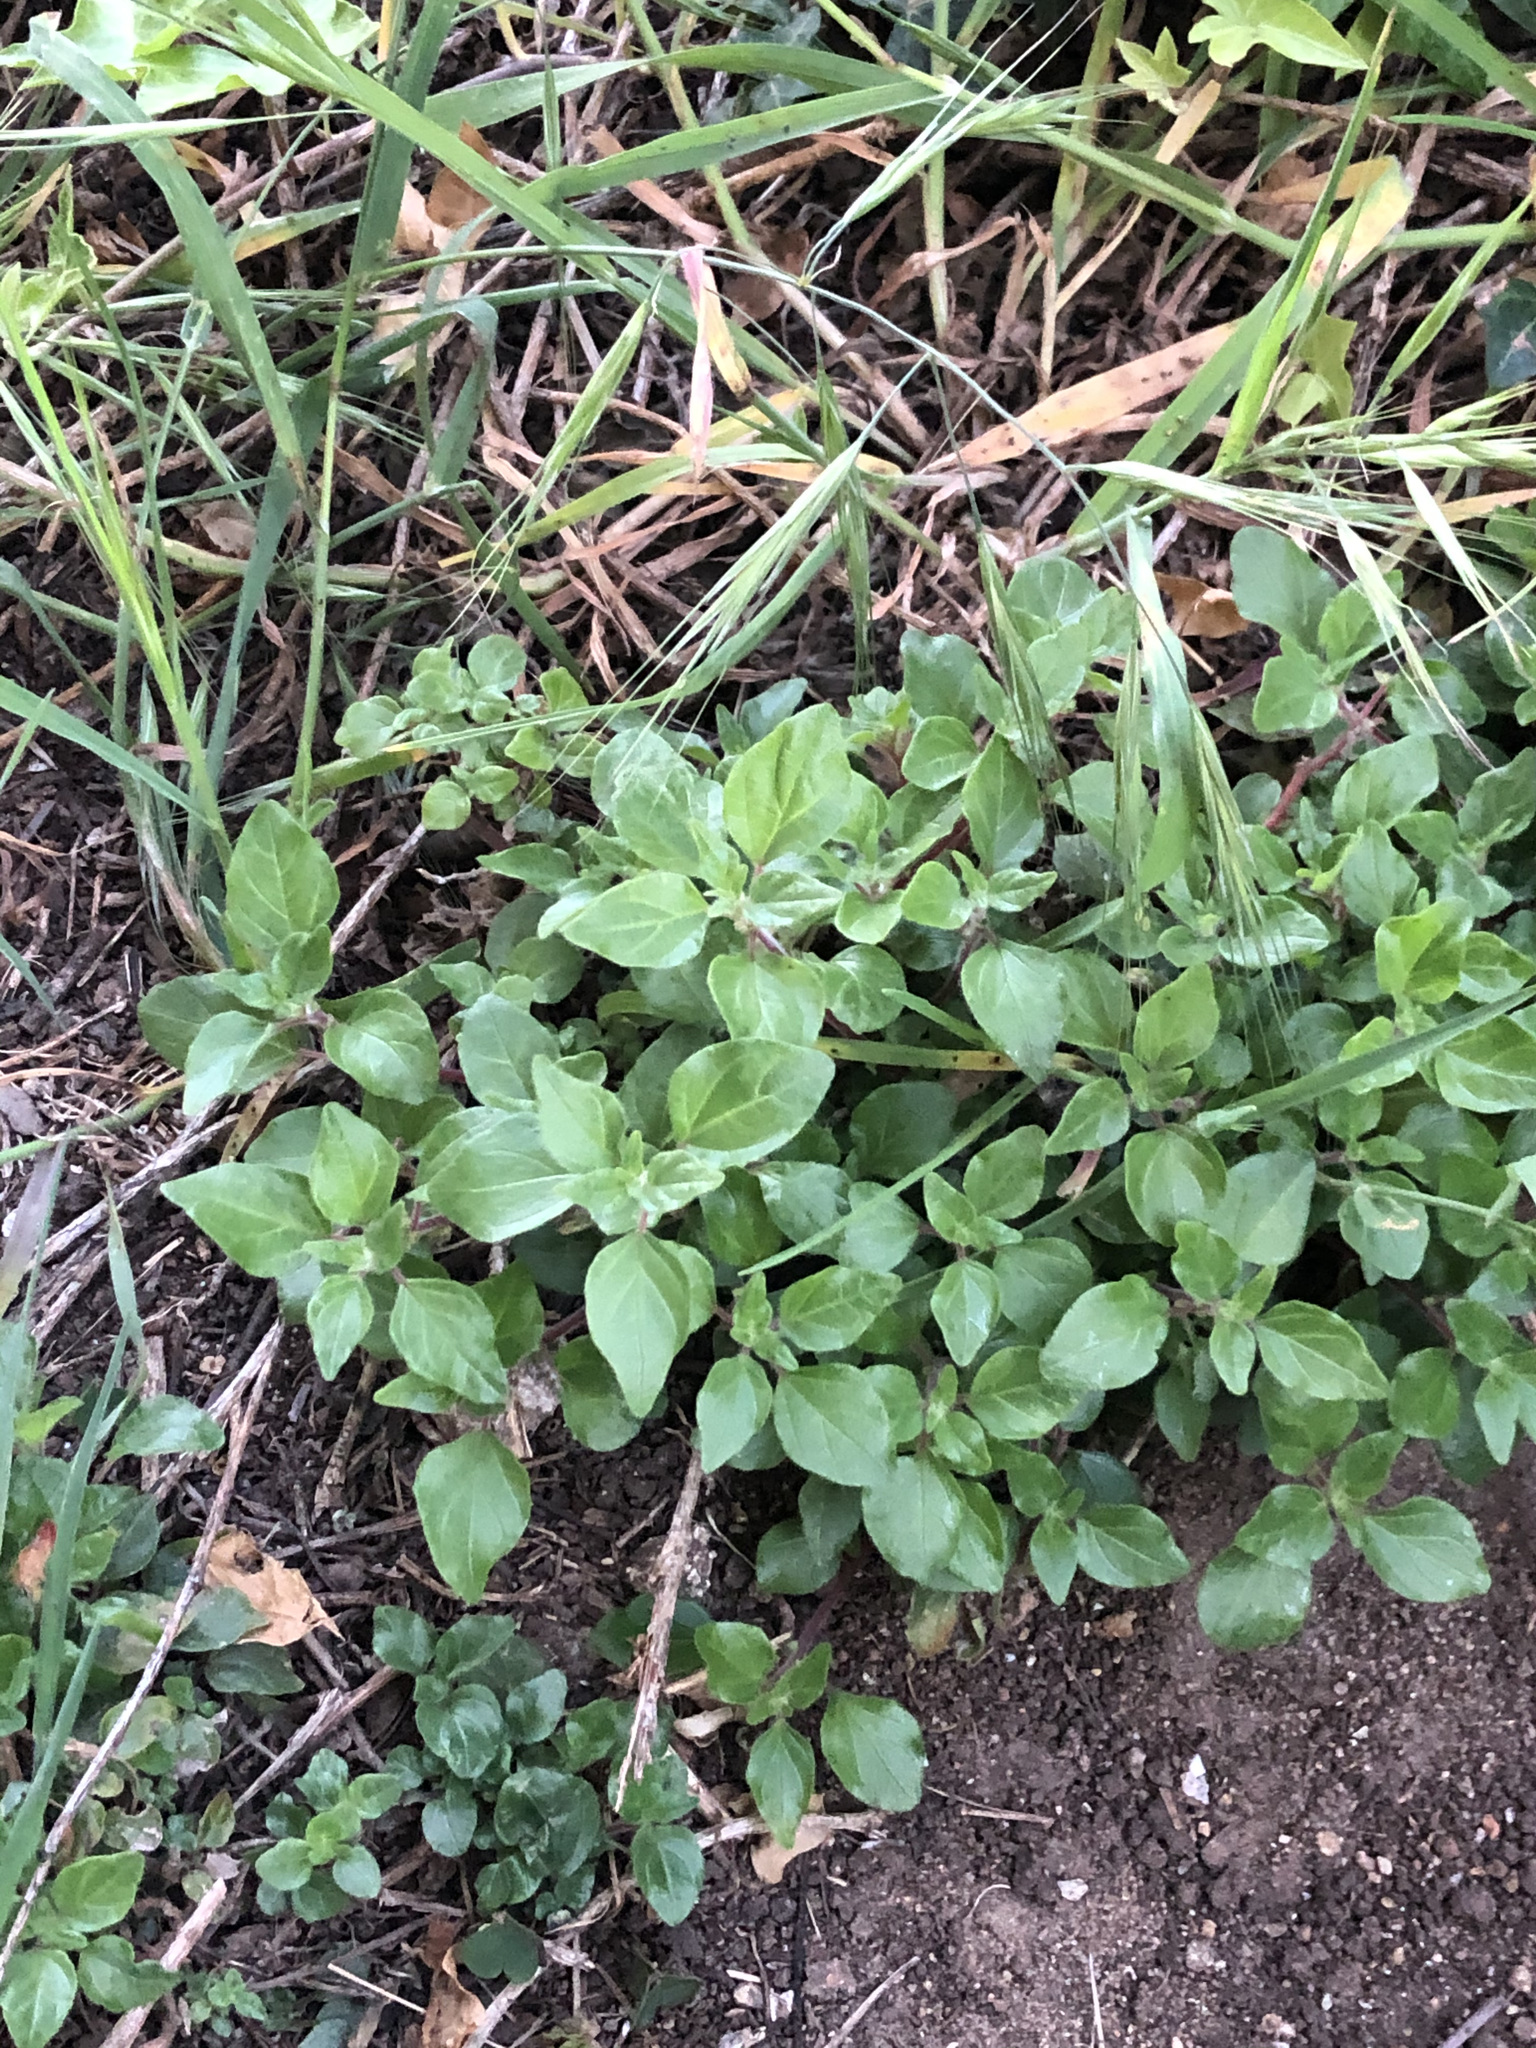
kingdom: Plantae
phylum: Tracheophyta
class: Magnoliopsida
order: Rosales
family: Urticaceae
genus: Parietaria
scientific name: Parietaria judaica
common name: Pellitory-of-the-wall
